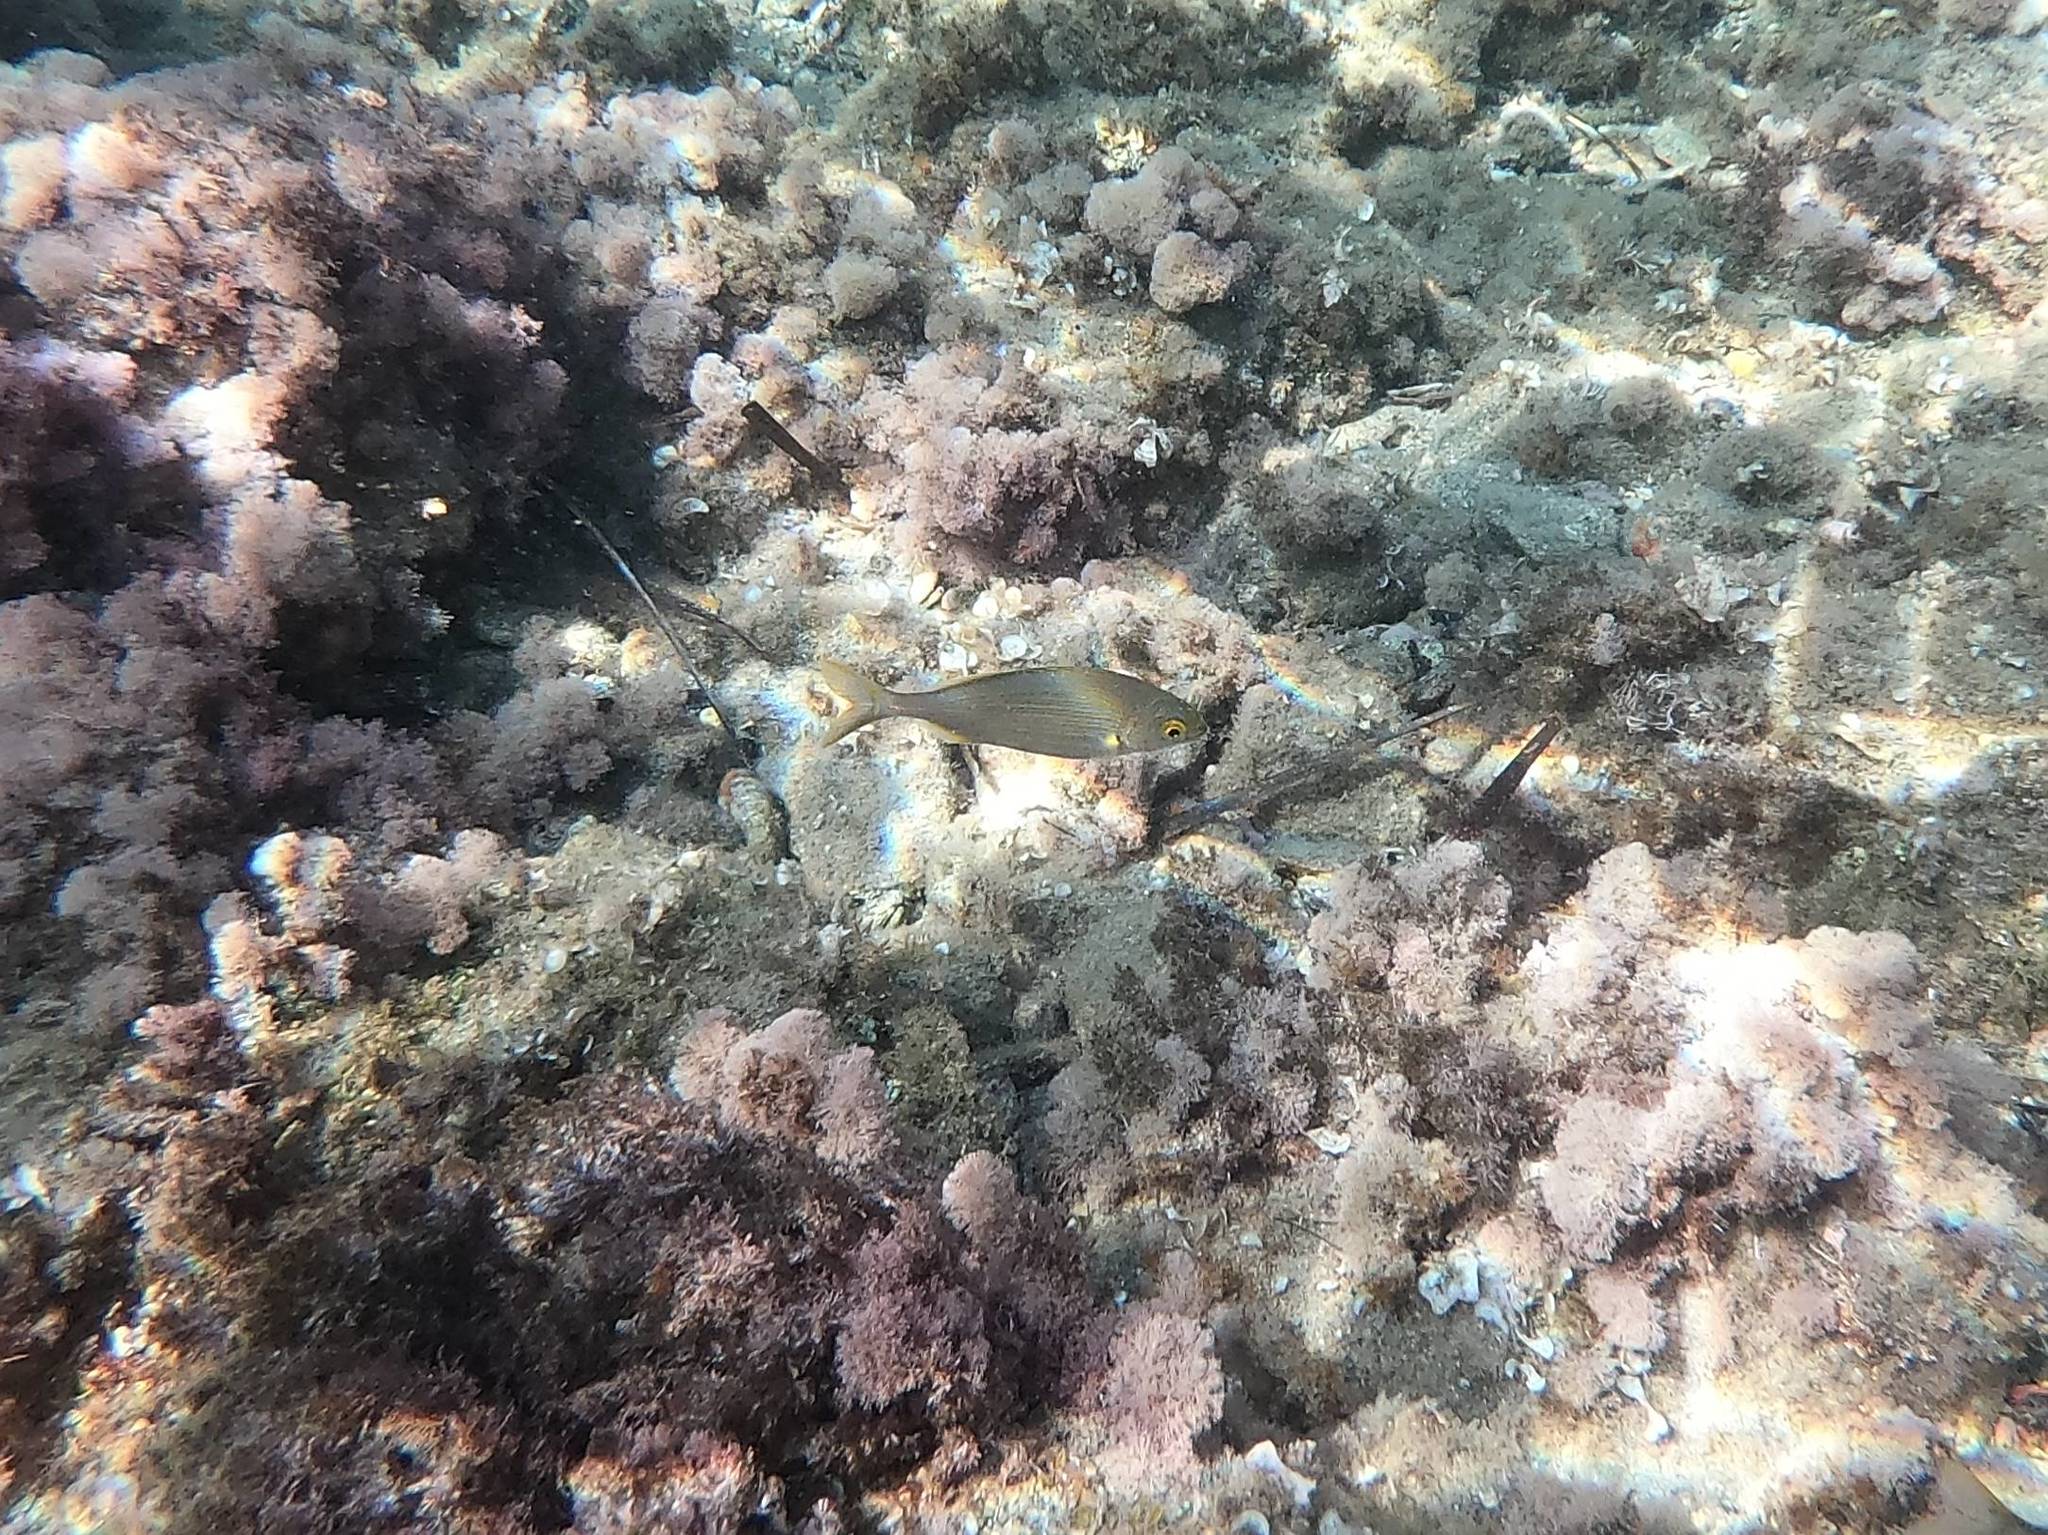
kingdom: Animalia
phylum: Chordata
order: Perciformes
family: Sparidae
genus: Sarpa
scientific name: Sarpa salpa
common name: Salema
